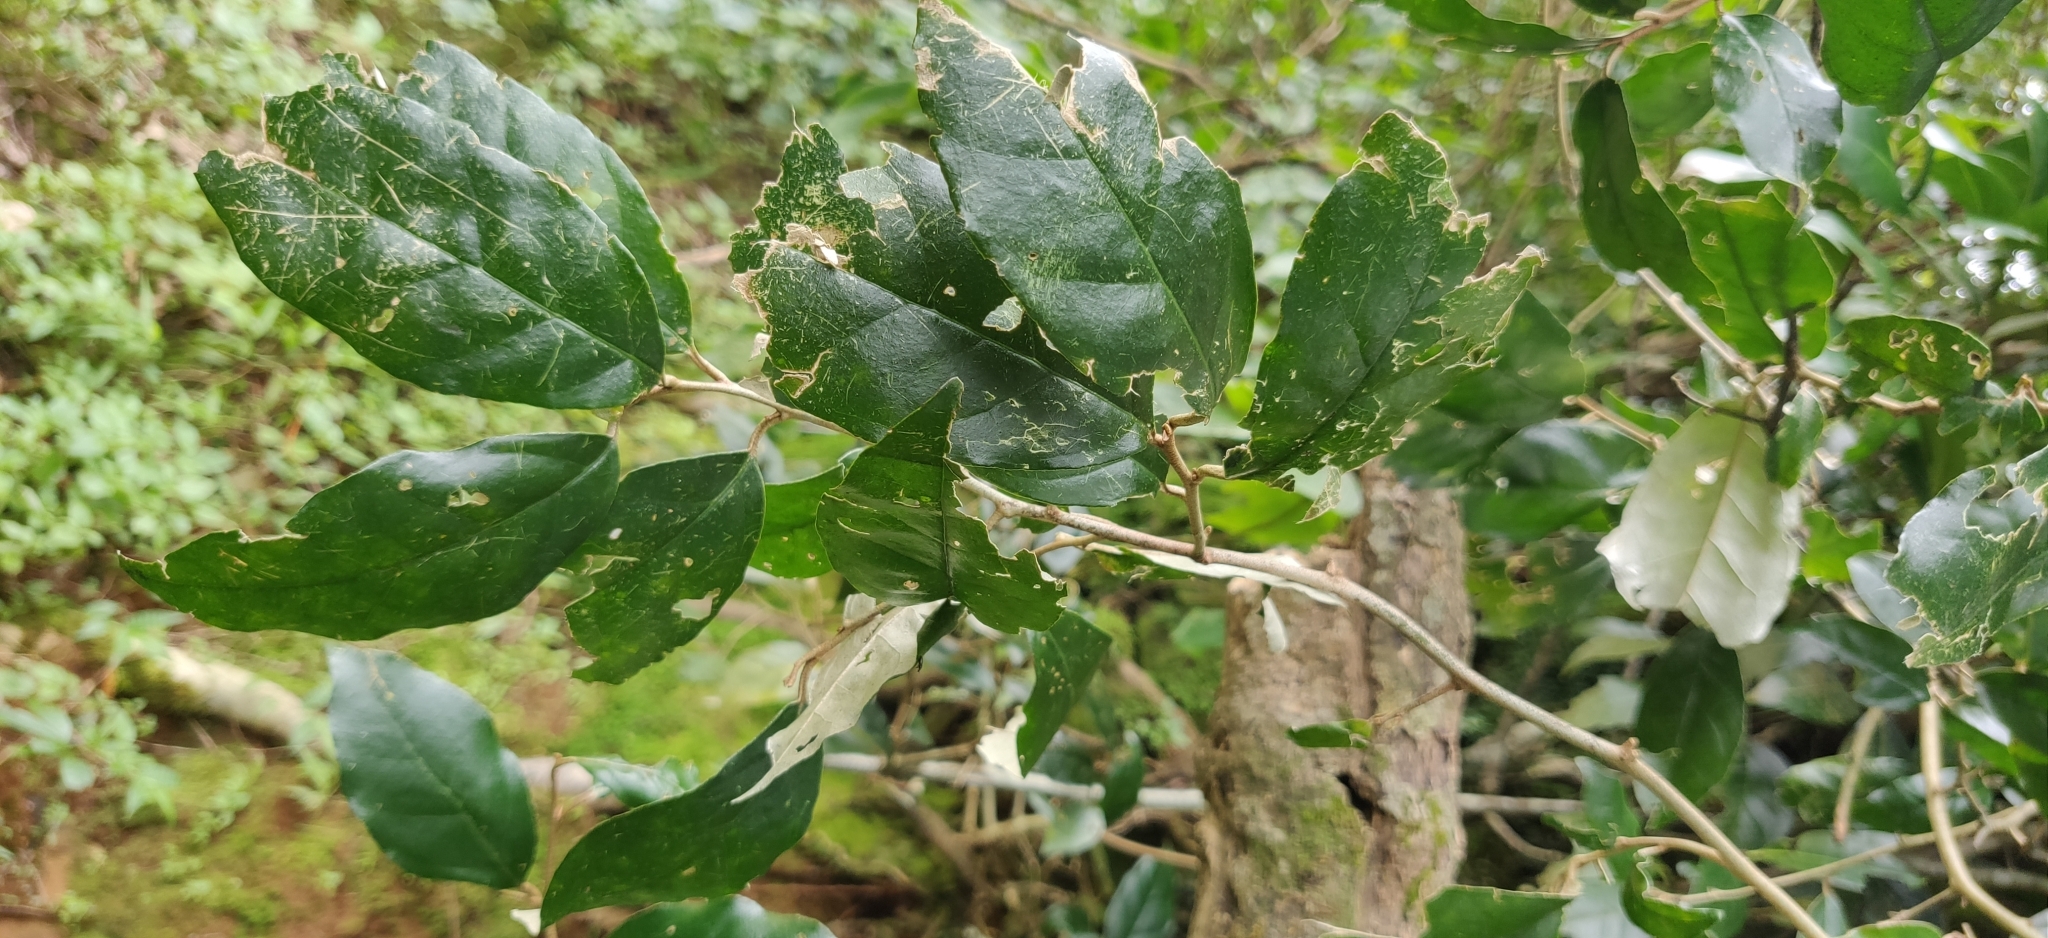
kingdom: Plantae
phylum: Tracheophyta
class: Magnoliopsida
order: Rosales
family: Elaeagnaceae
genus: Elaeagnus
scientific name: Elaeagnus conferta
